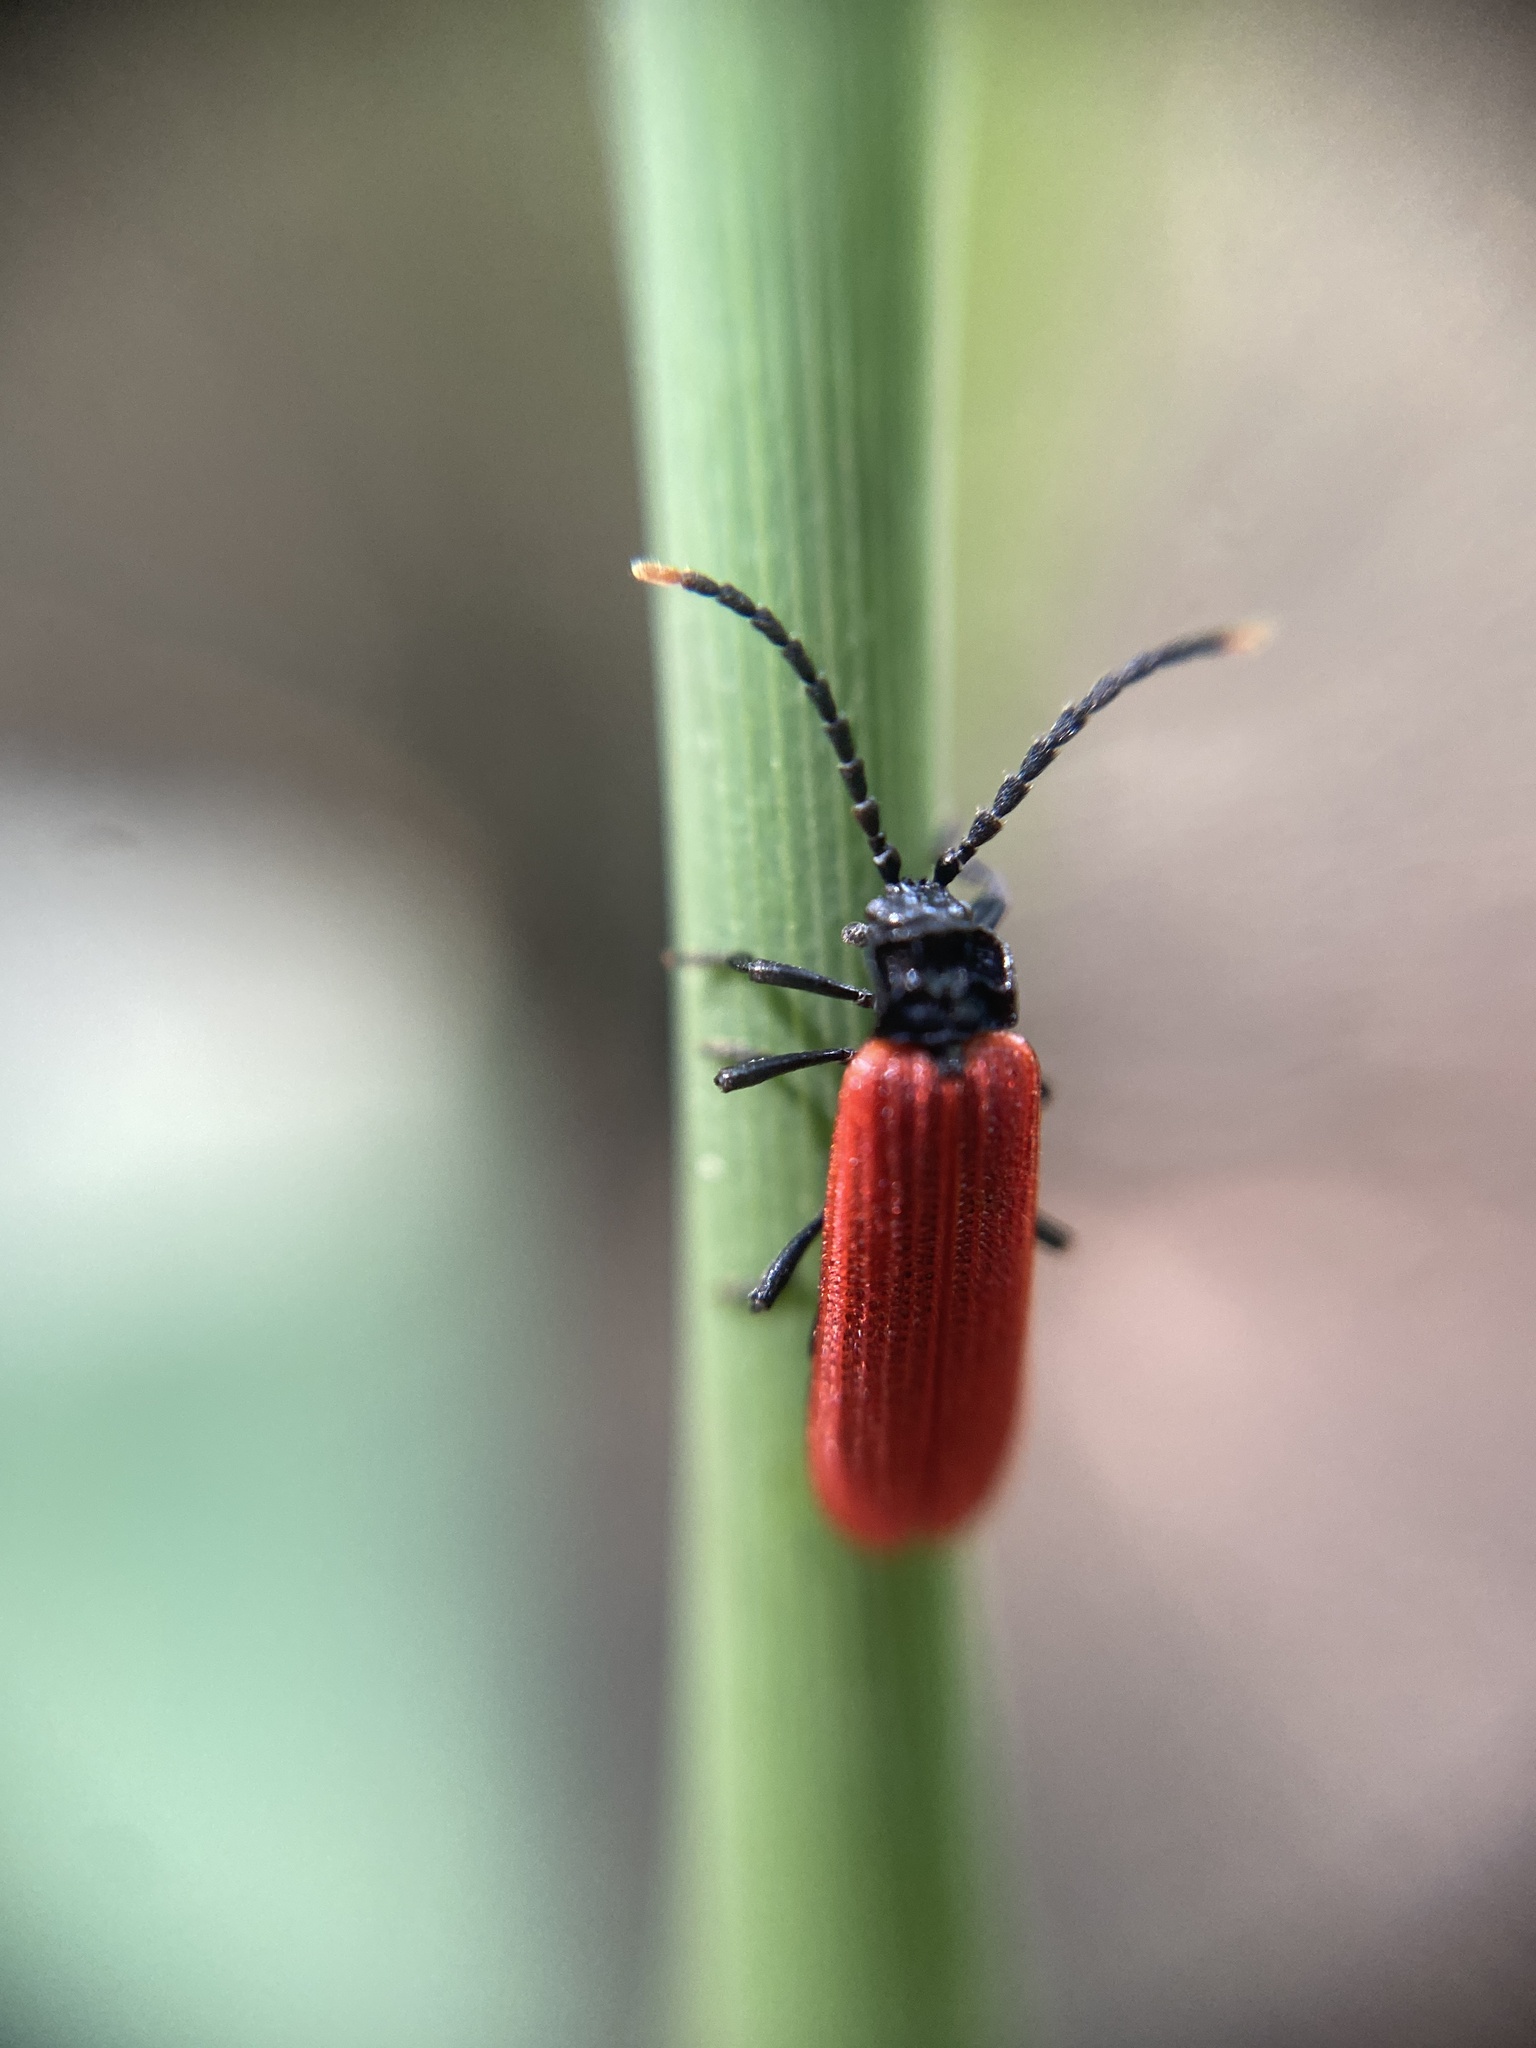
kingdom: Animalia
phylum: Arthropoda
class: Insecta
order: Coleoptera
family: Lycidae
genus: Platycis
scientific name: Platycis minutus
